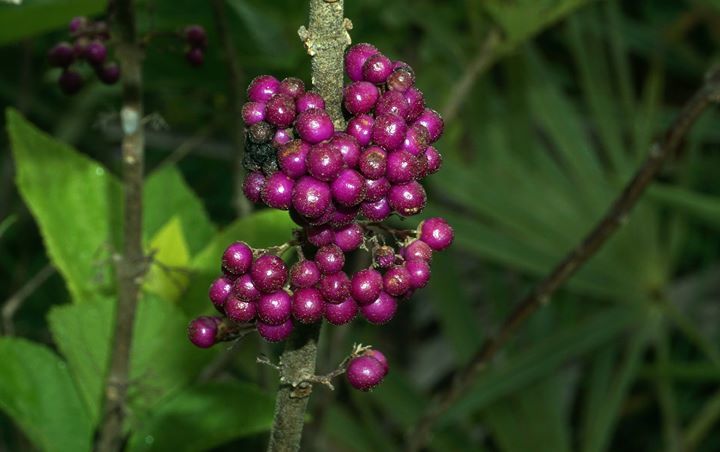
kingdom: Plantae
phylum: Tracheophyta
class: Magnoliopsida
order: Lamiales
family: Lamiaceae
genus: Callicarpa
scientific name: Callicarpa americana
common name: American beautyberry
